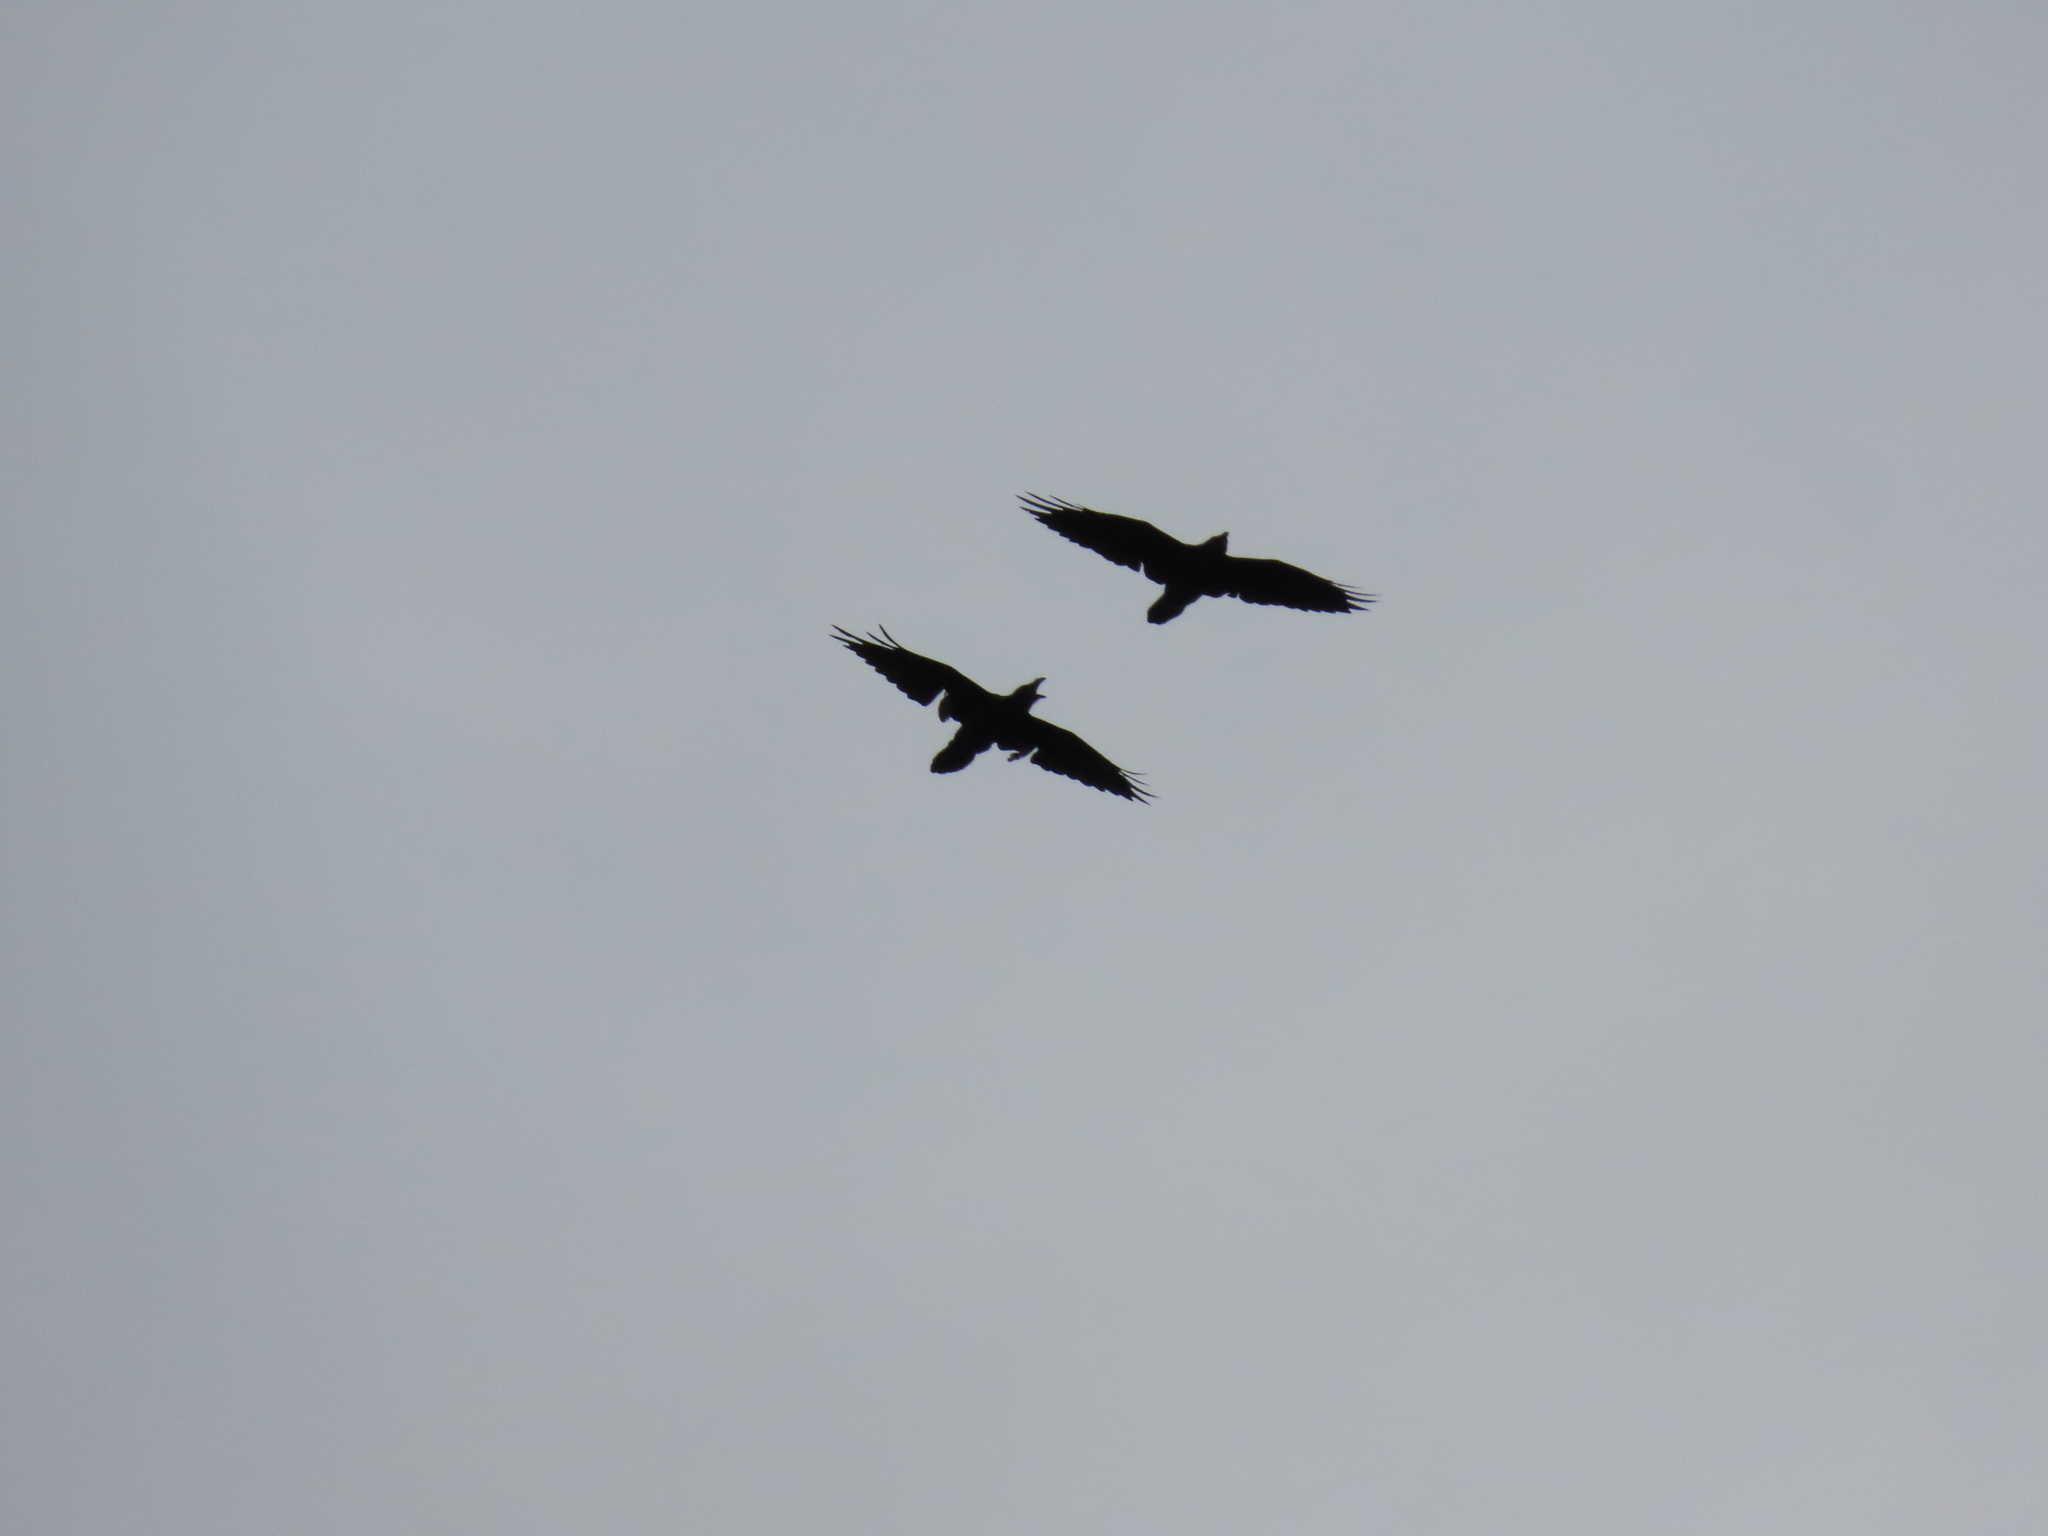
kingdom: Animalia
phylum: Chordata
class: Aves
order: Passeriformes
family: Corvidae
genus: Corvus
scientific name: Corvus corax
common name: Common raven
